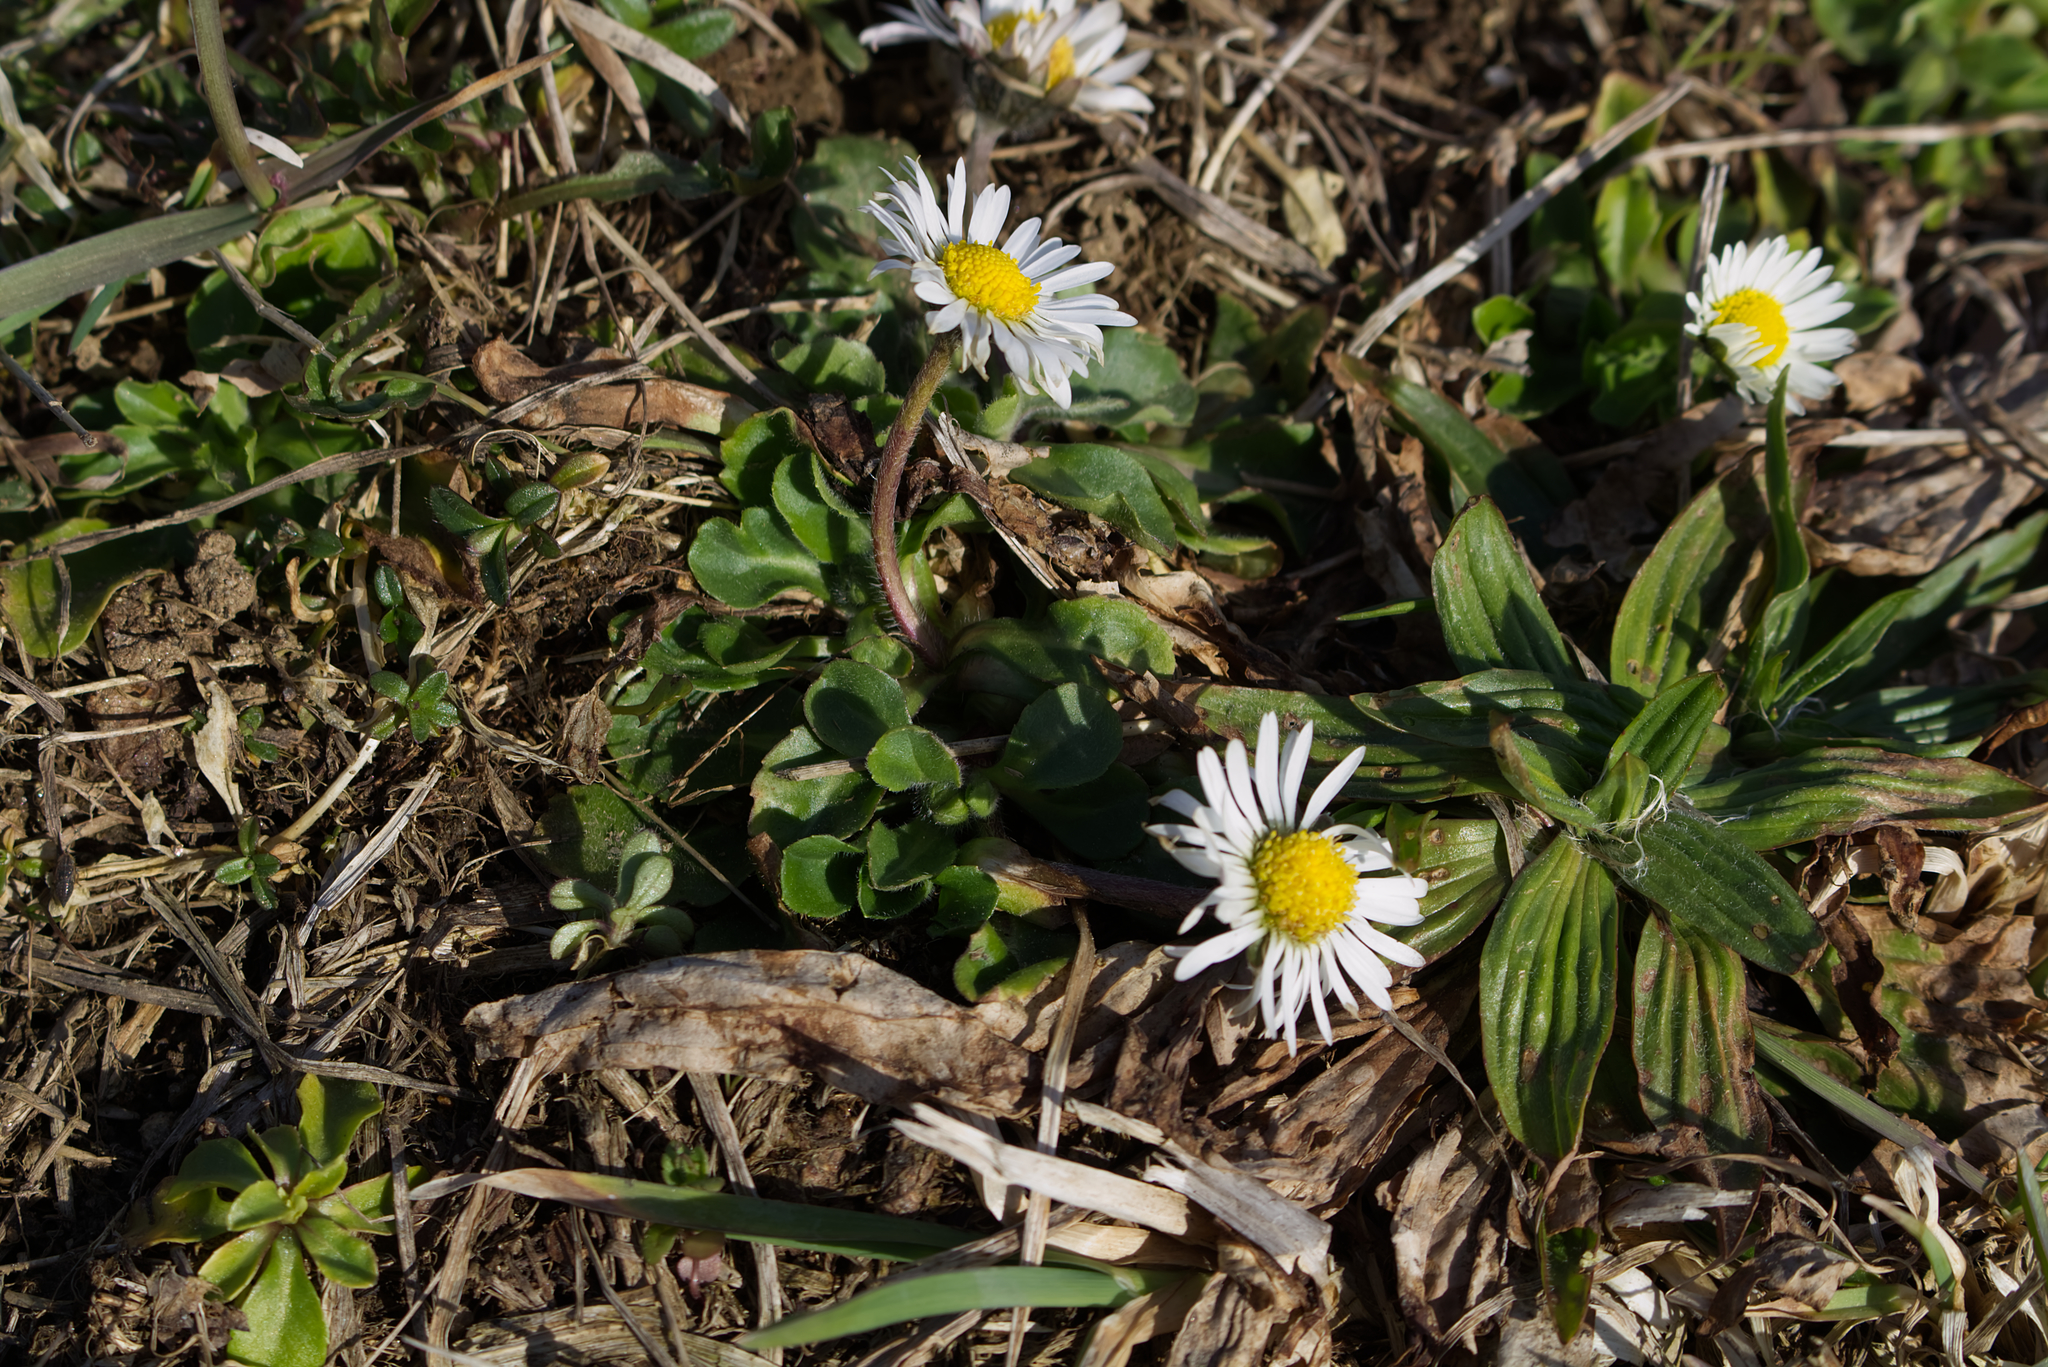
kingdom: Plantae
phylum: Tracheophyta
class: Magnoliopsida
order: Asterales
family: Asteraceae
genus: Bellis
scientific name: Bellis perennis
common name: Lawndaisy
